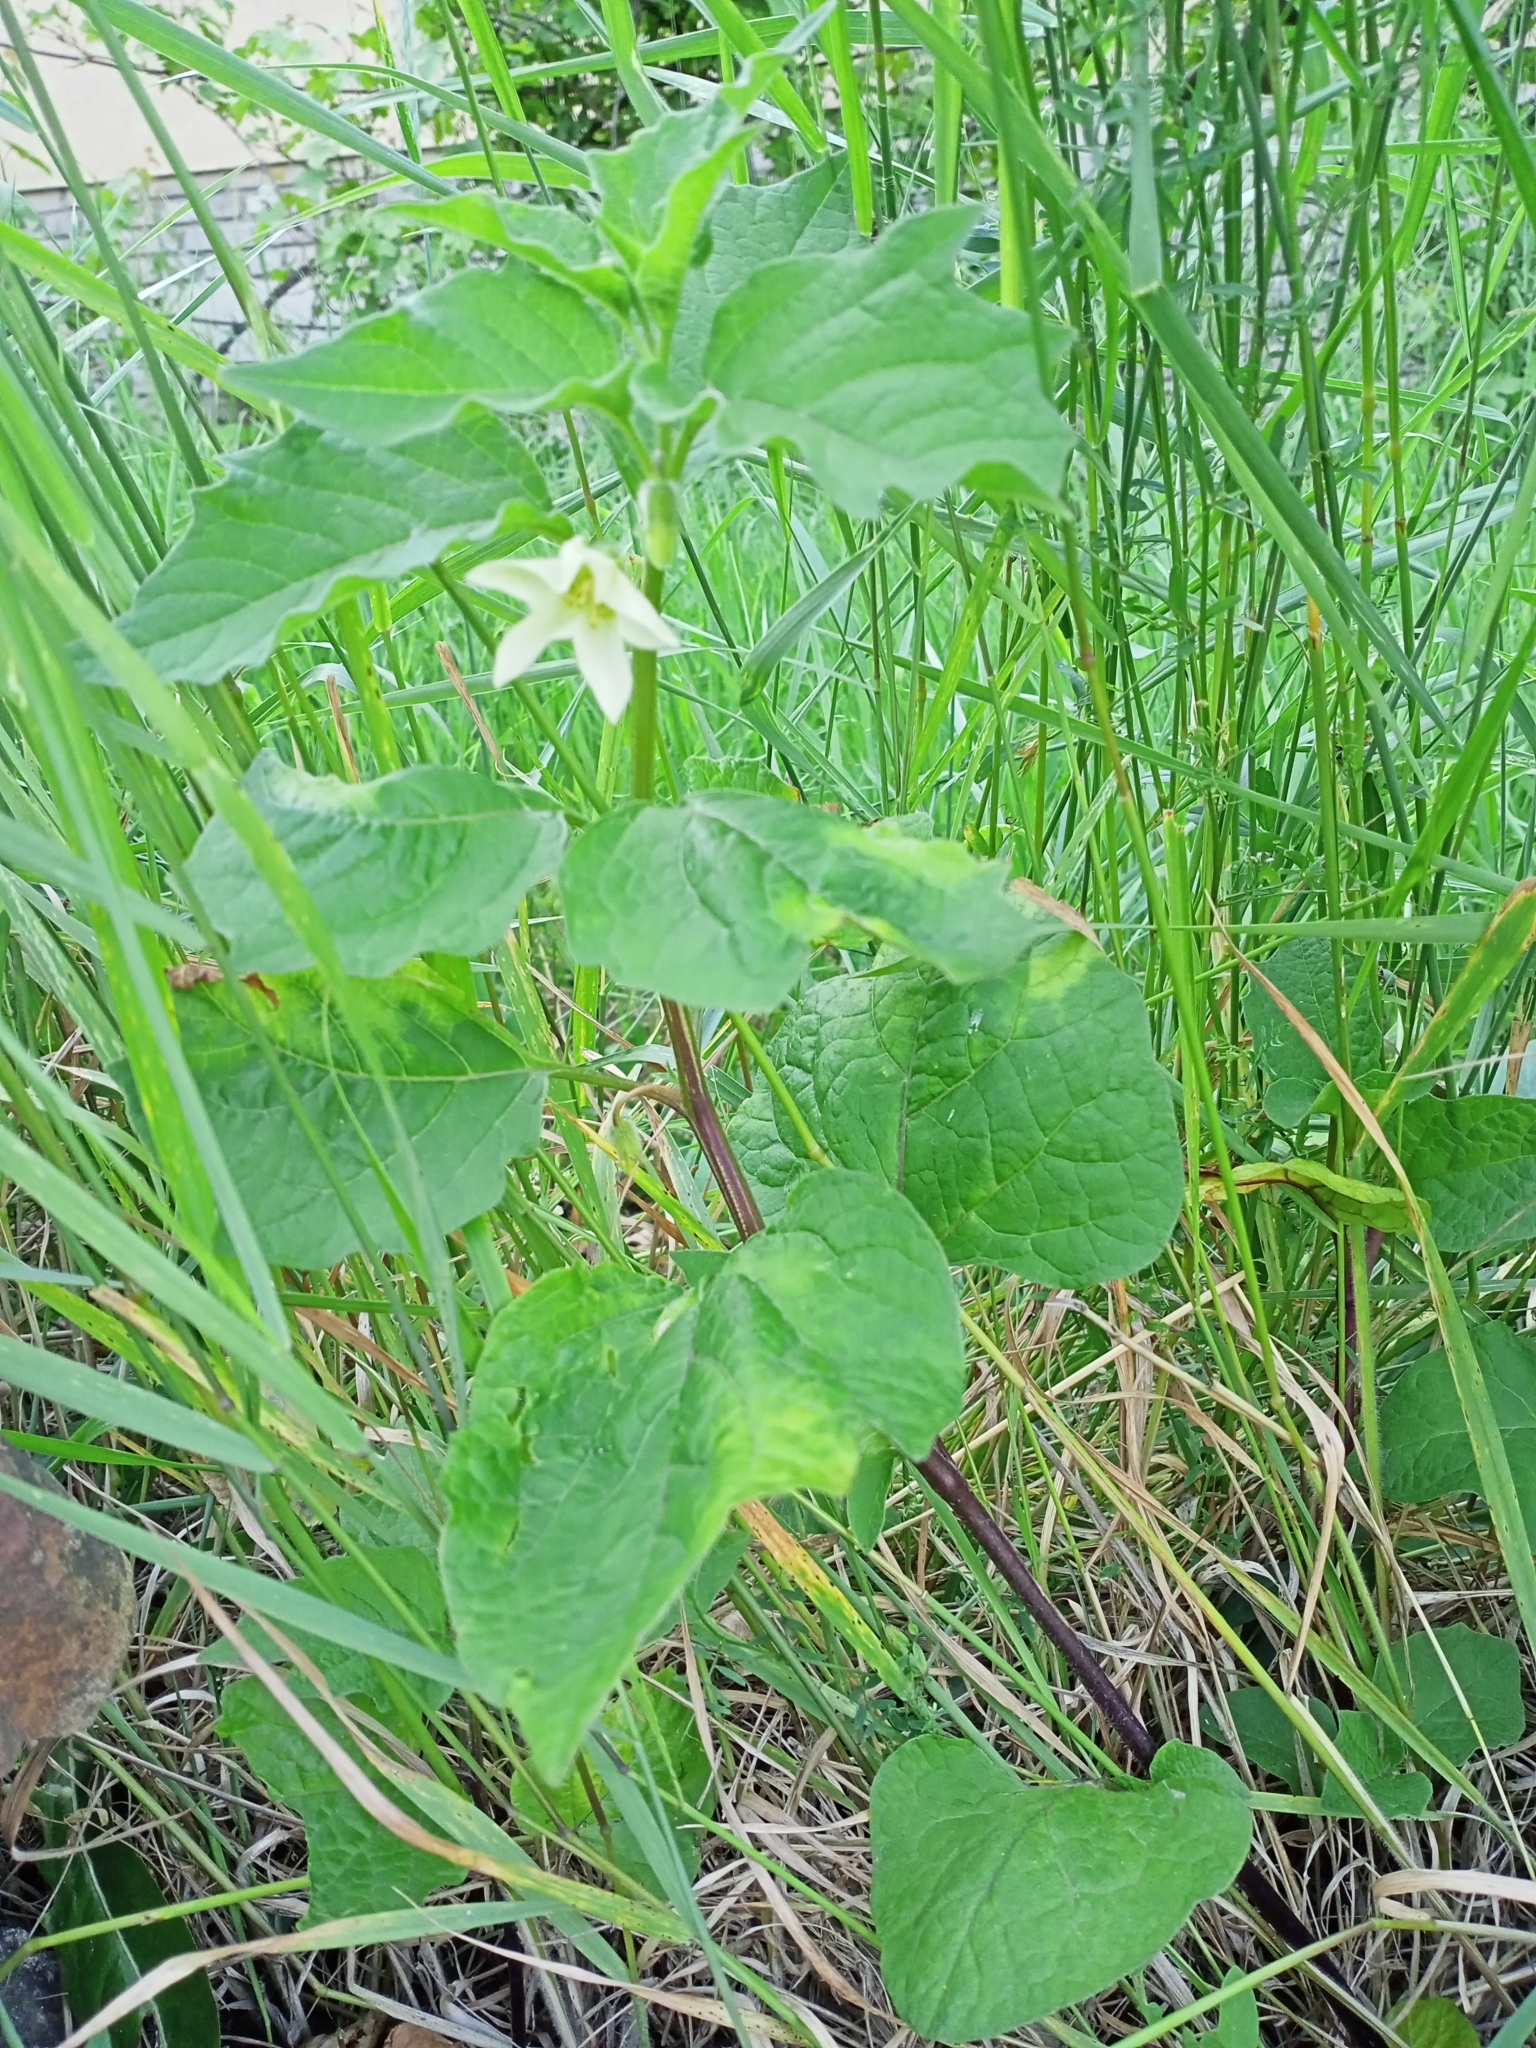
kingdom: Plantae
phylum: Tracheophyta
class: Magnoliopsida
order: Solanales
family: Solanaceae
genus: Alkekengi
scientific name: Alkekengi officinarum
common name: Japanese-lantern
